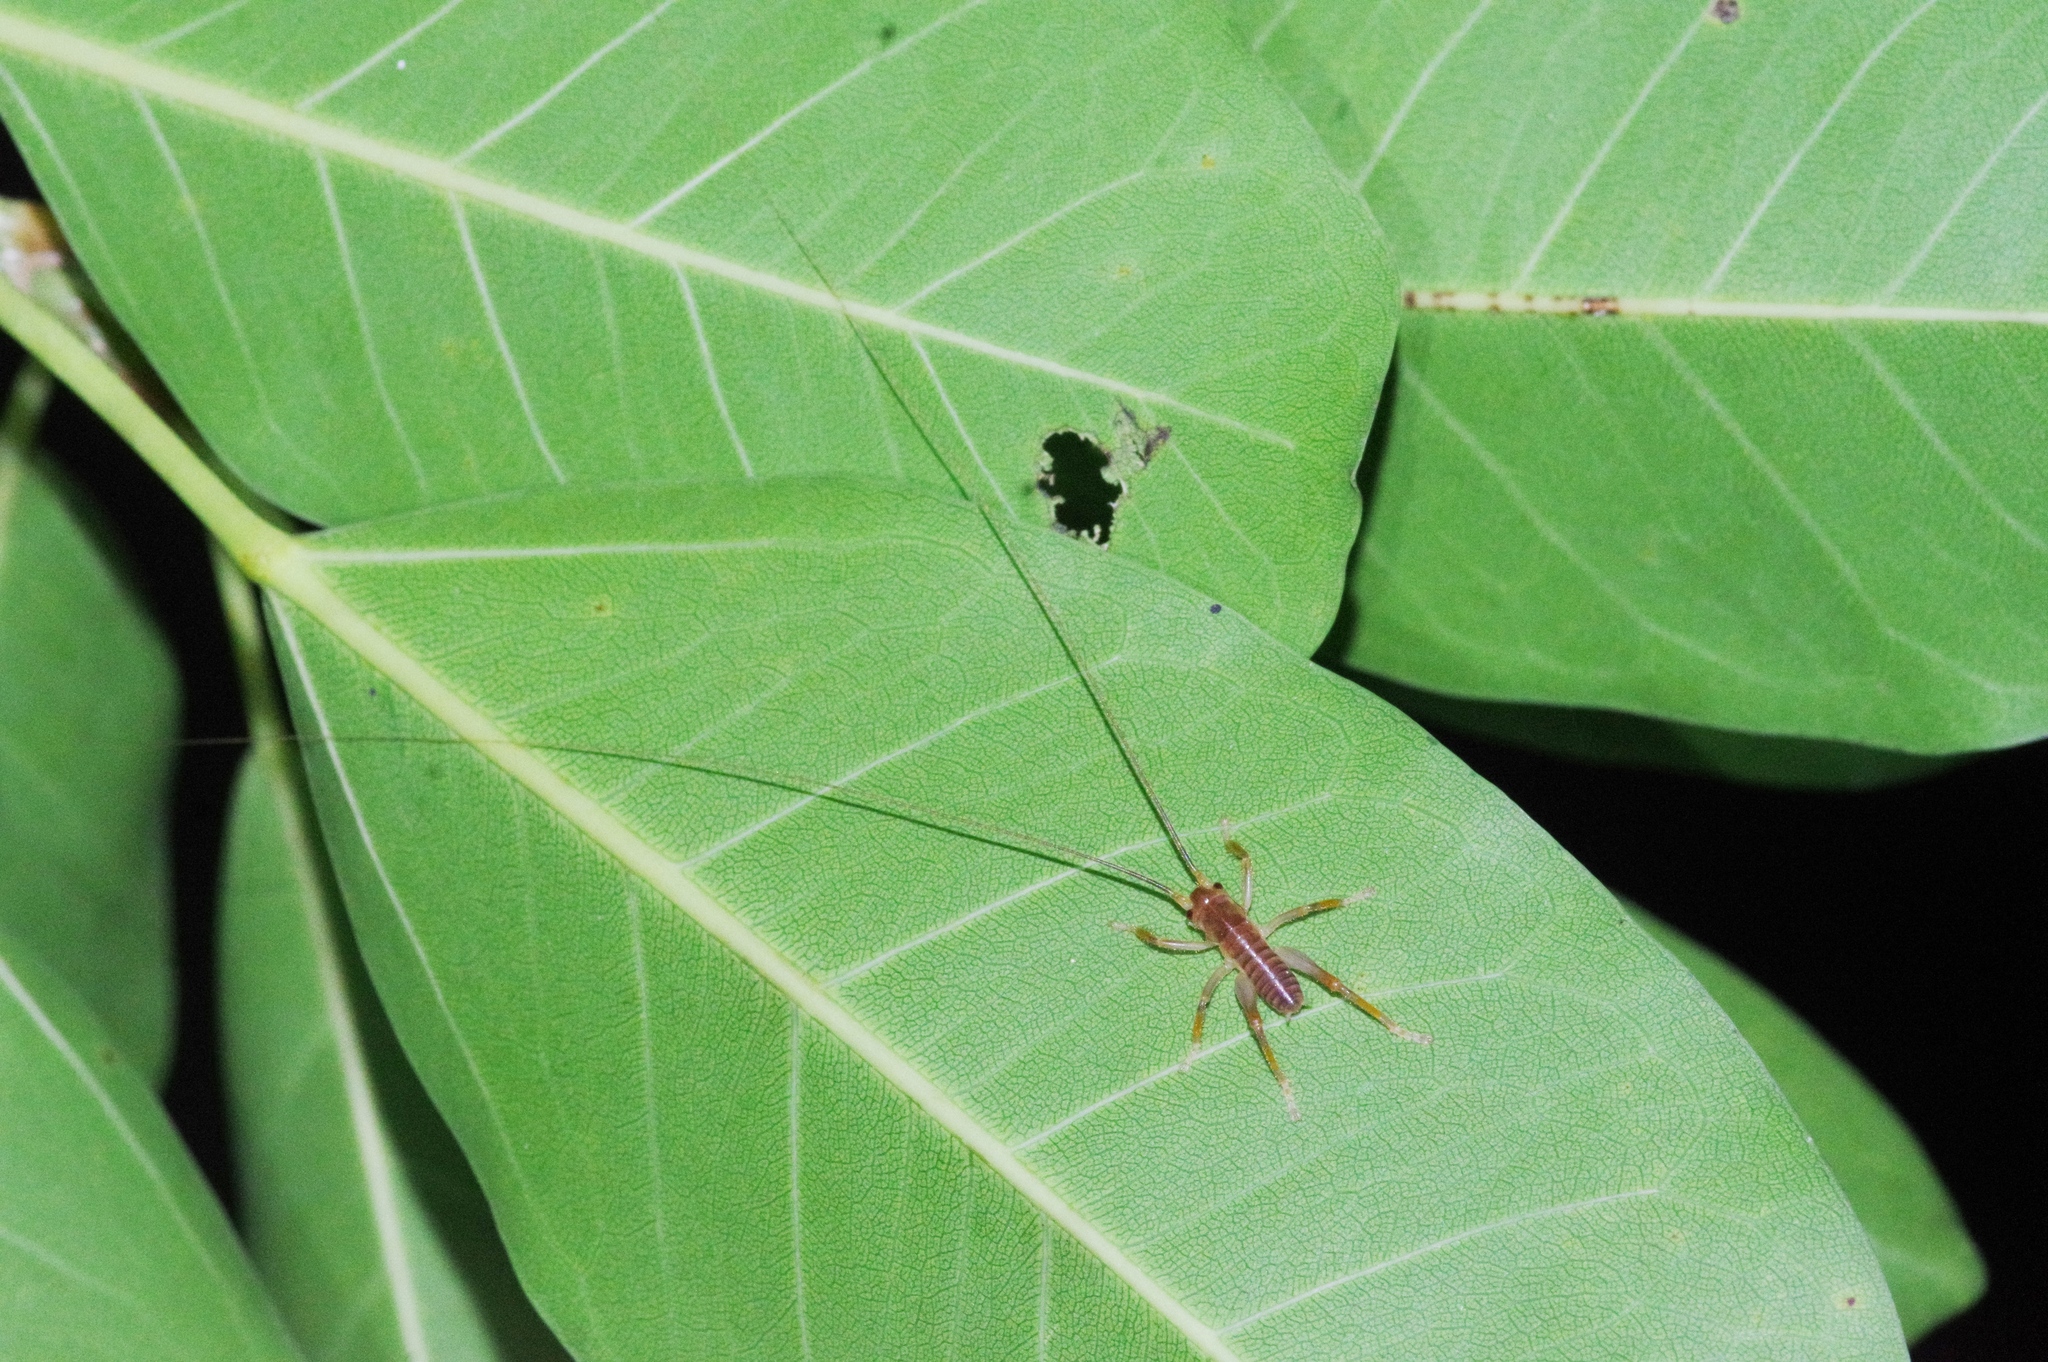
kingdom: Animalia
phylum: Arthropoda
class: Insecta
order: Orthoptera
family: Gryllacrididae
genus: Metriogryllacris
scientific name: Metriogryllacris magna
